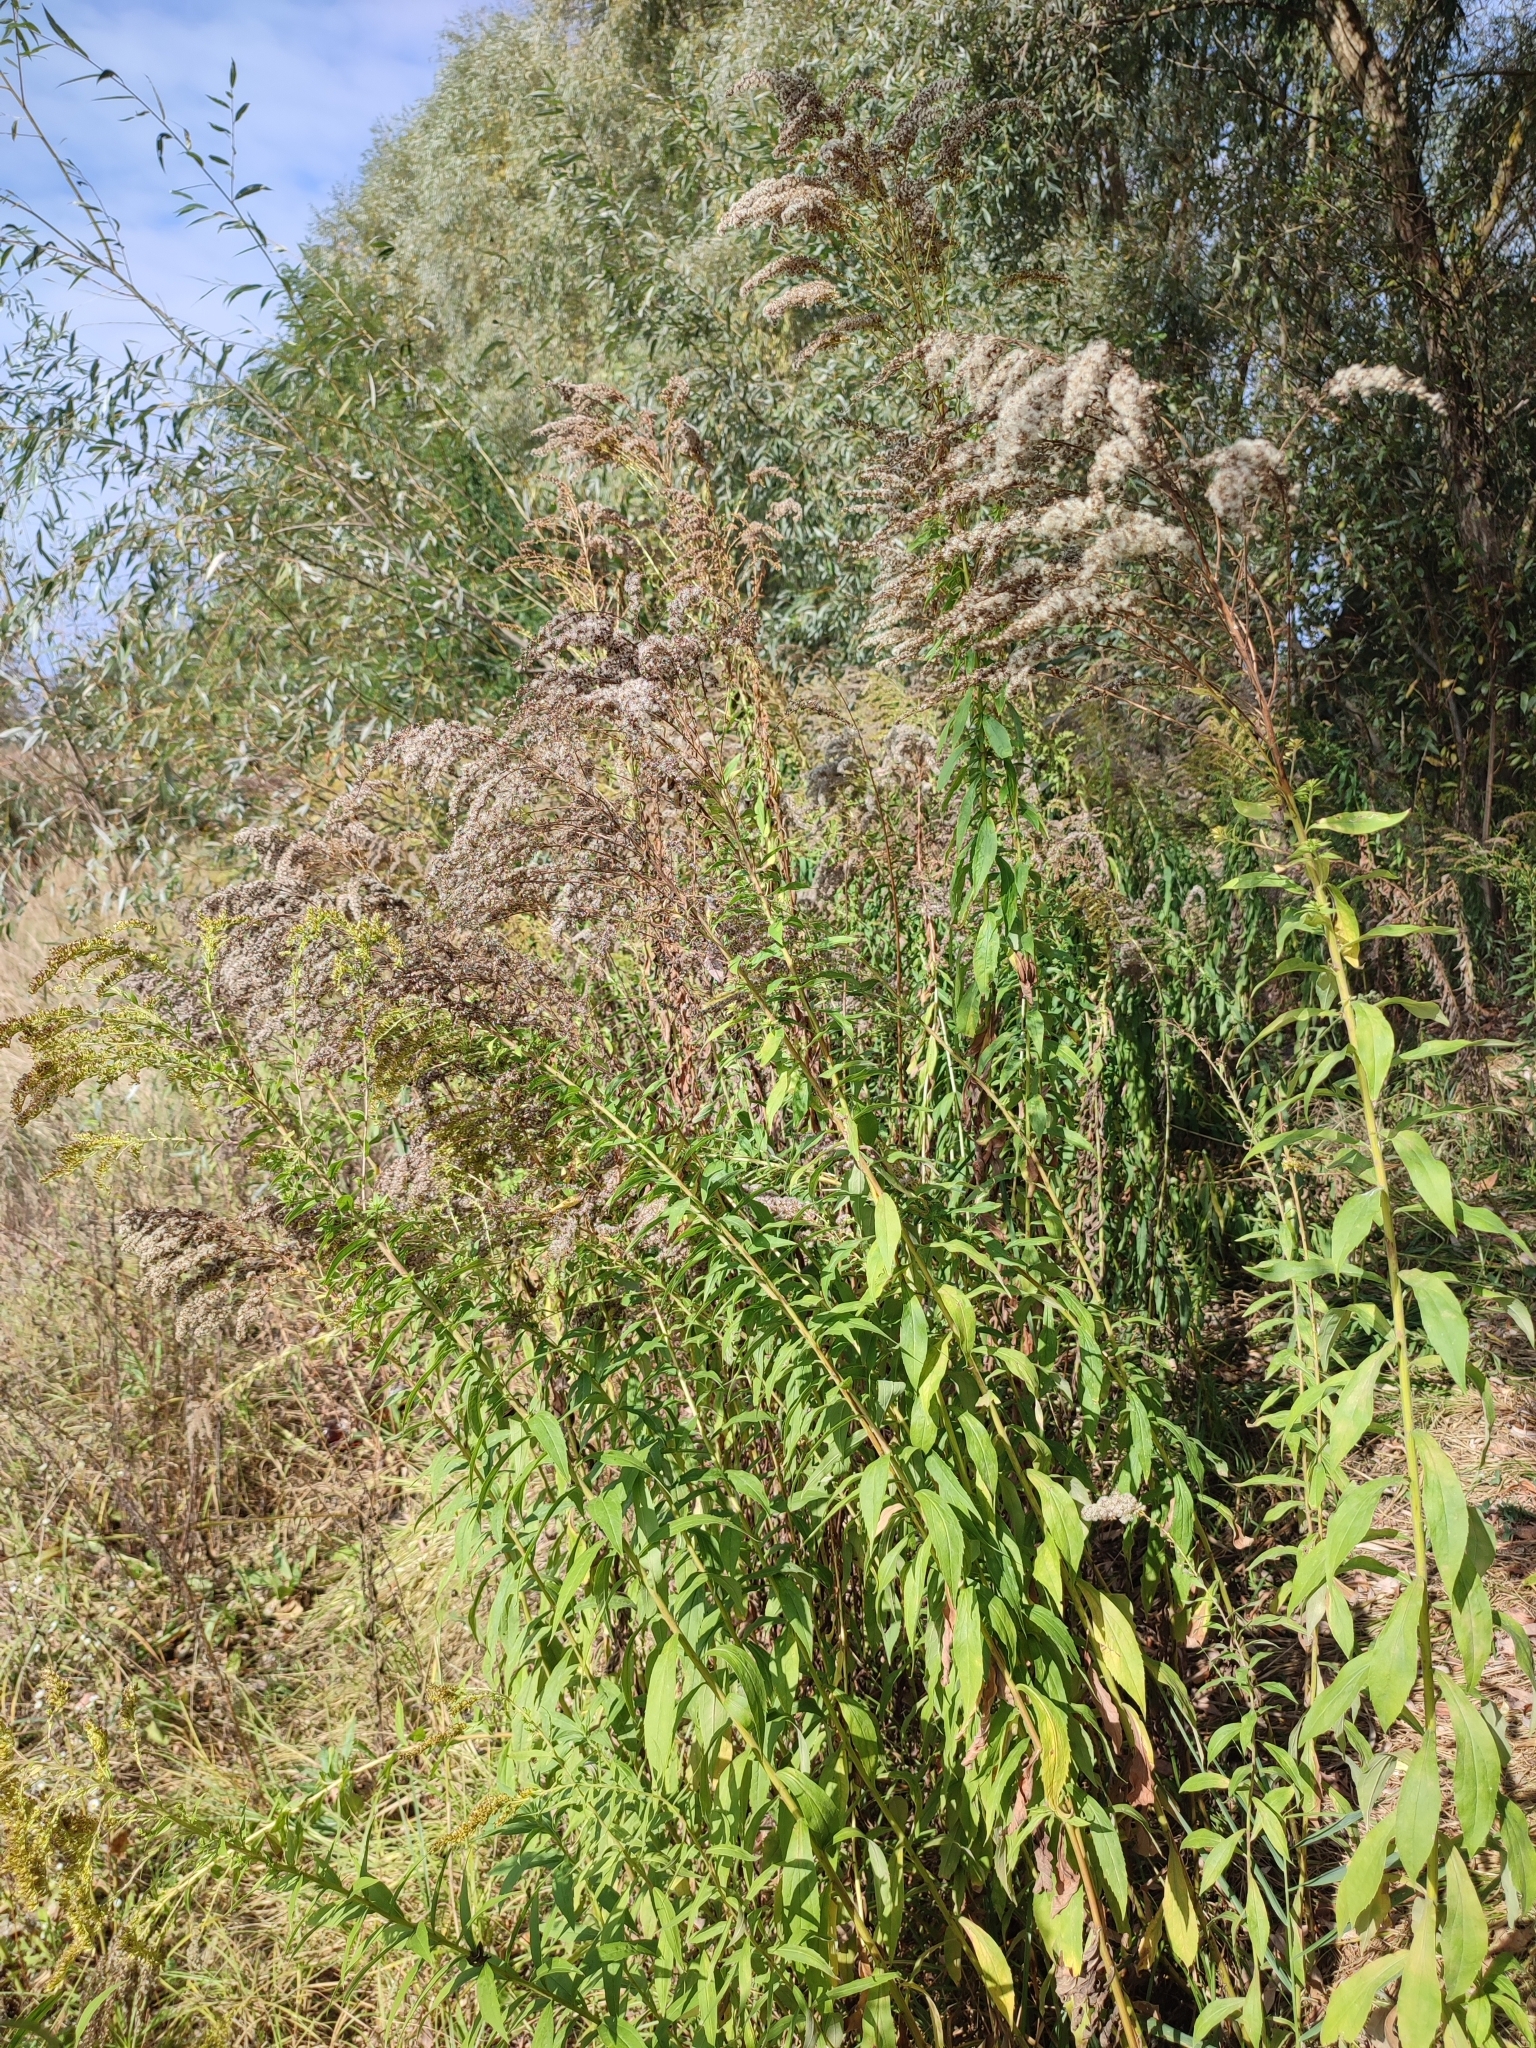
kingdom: Plantae
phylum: Tracheophyta
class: Magnoliopsida
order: Asterales
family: Asteraceae
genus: Solidago
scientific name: Solidago canadensis
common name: Canada goldenrod
